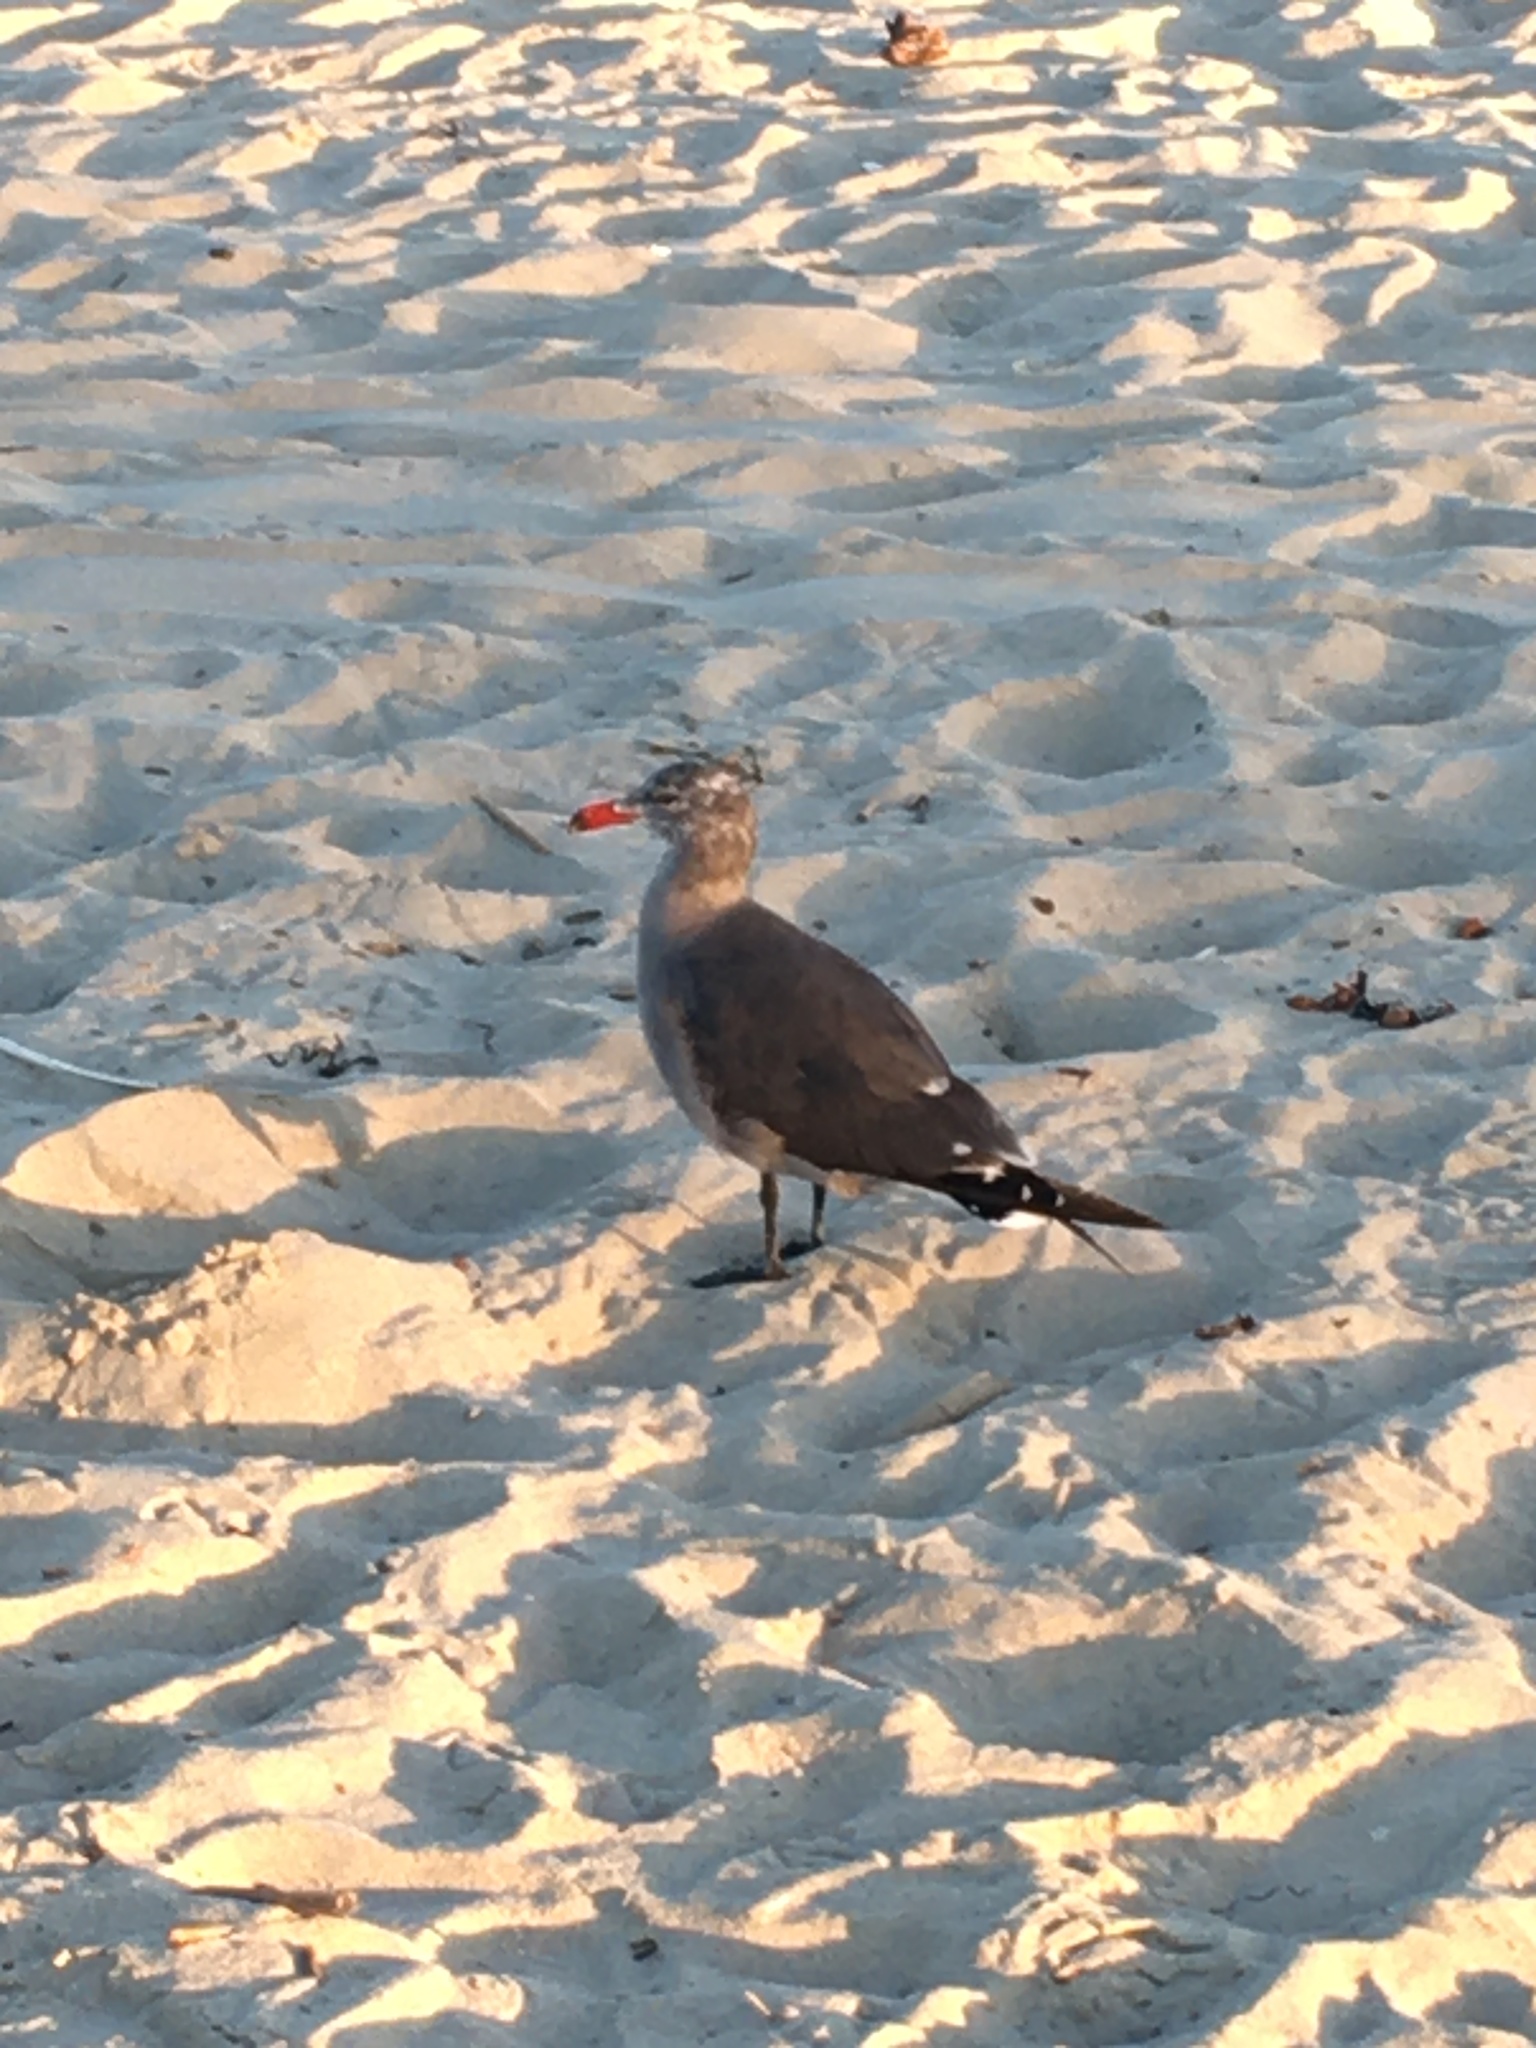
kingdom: Animalia
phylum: Chordata
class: Aves
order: Charadriiformes
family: Laridae
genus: Larus
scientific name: Larus heermanni
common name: Heermann's gull
